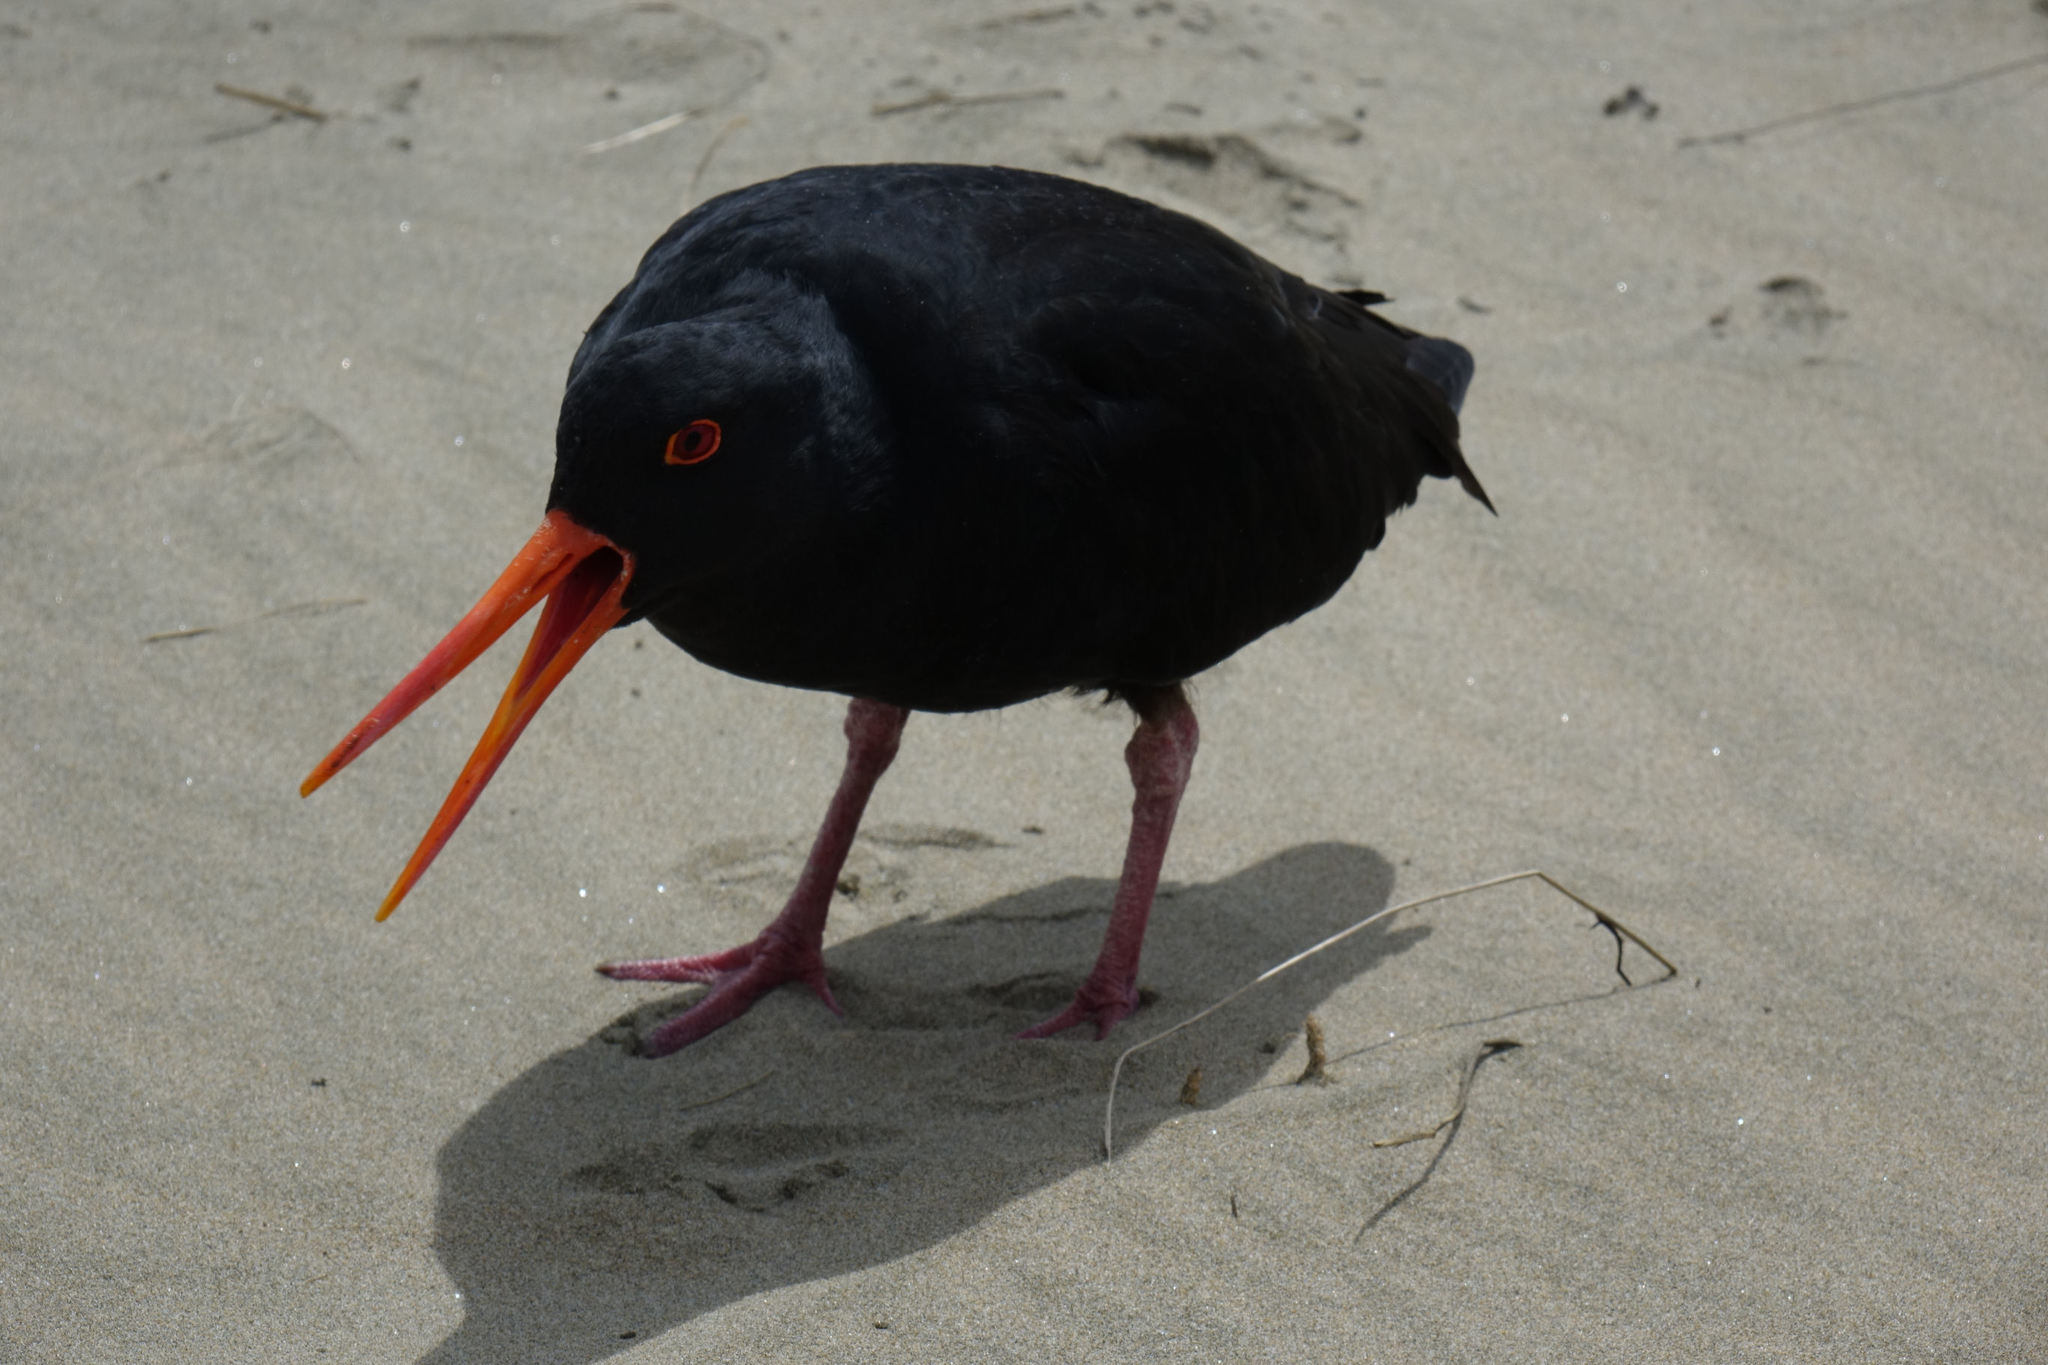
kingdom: Animalia
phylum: Chordata
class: Aves
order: Charadriiformes
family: Haematopodidae
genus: Haematopus
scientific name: Haematopus unicolor
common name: Variable oystercatcher
